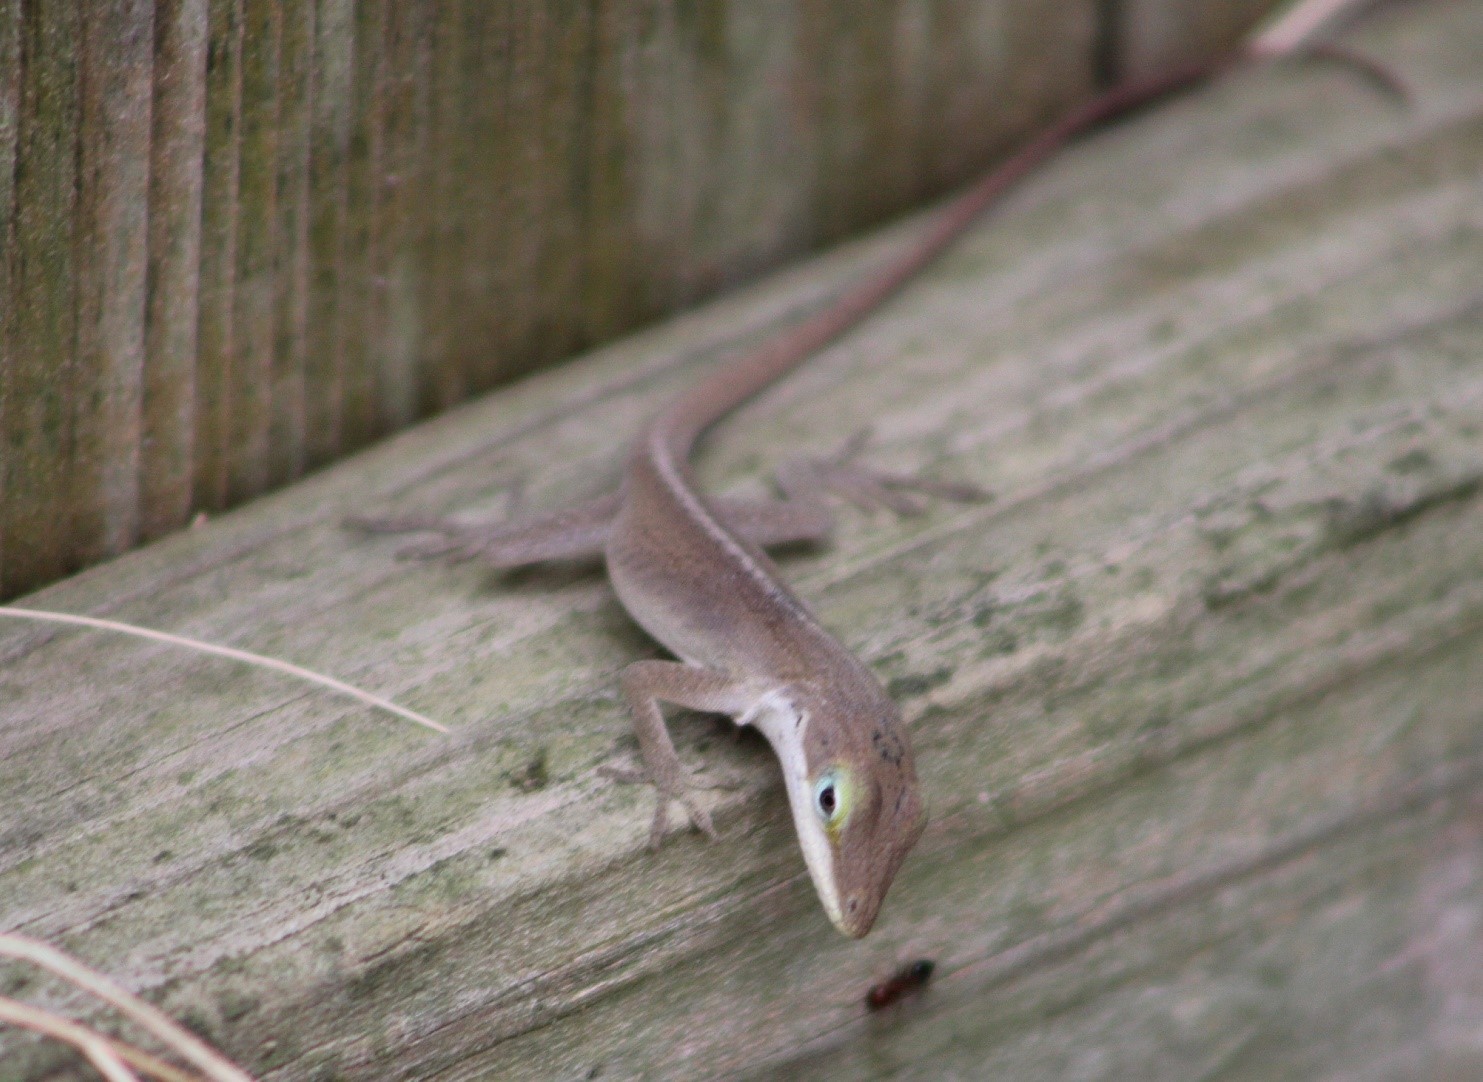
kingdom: Animalia
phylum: Chordata
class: Squamata
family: Dactyloidae
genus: Anolis
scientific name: Anolis carolinensis
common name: Green anole
